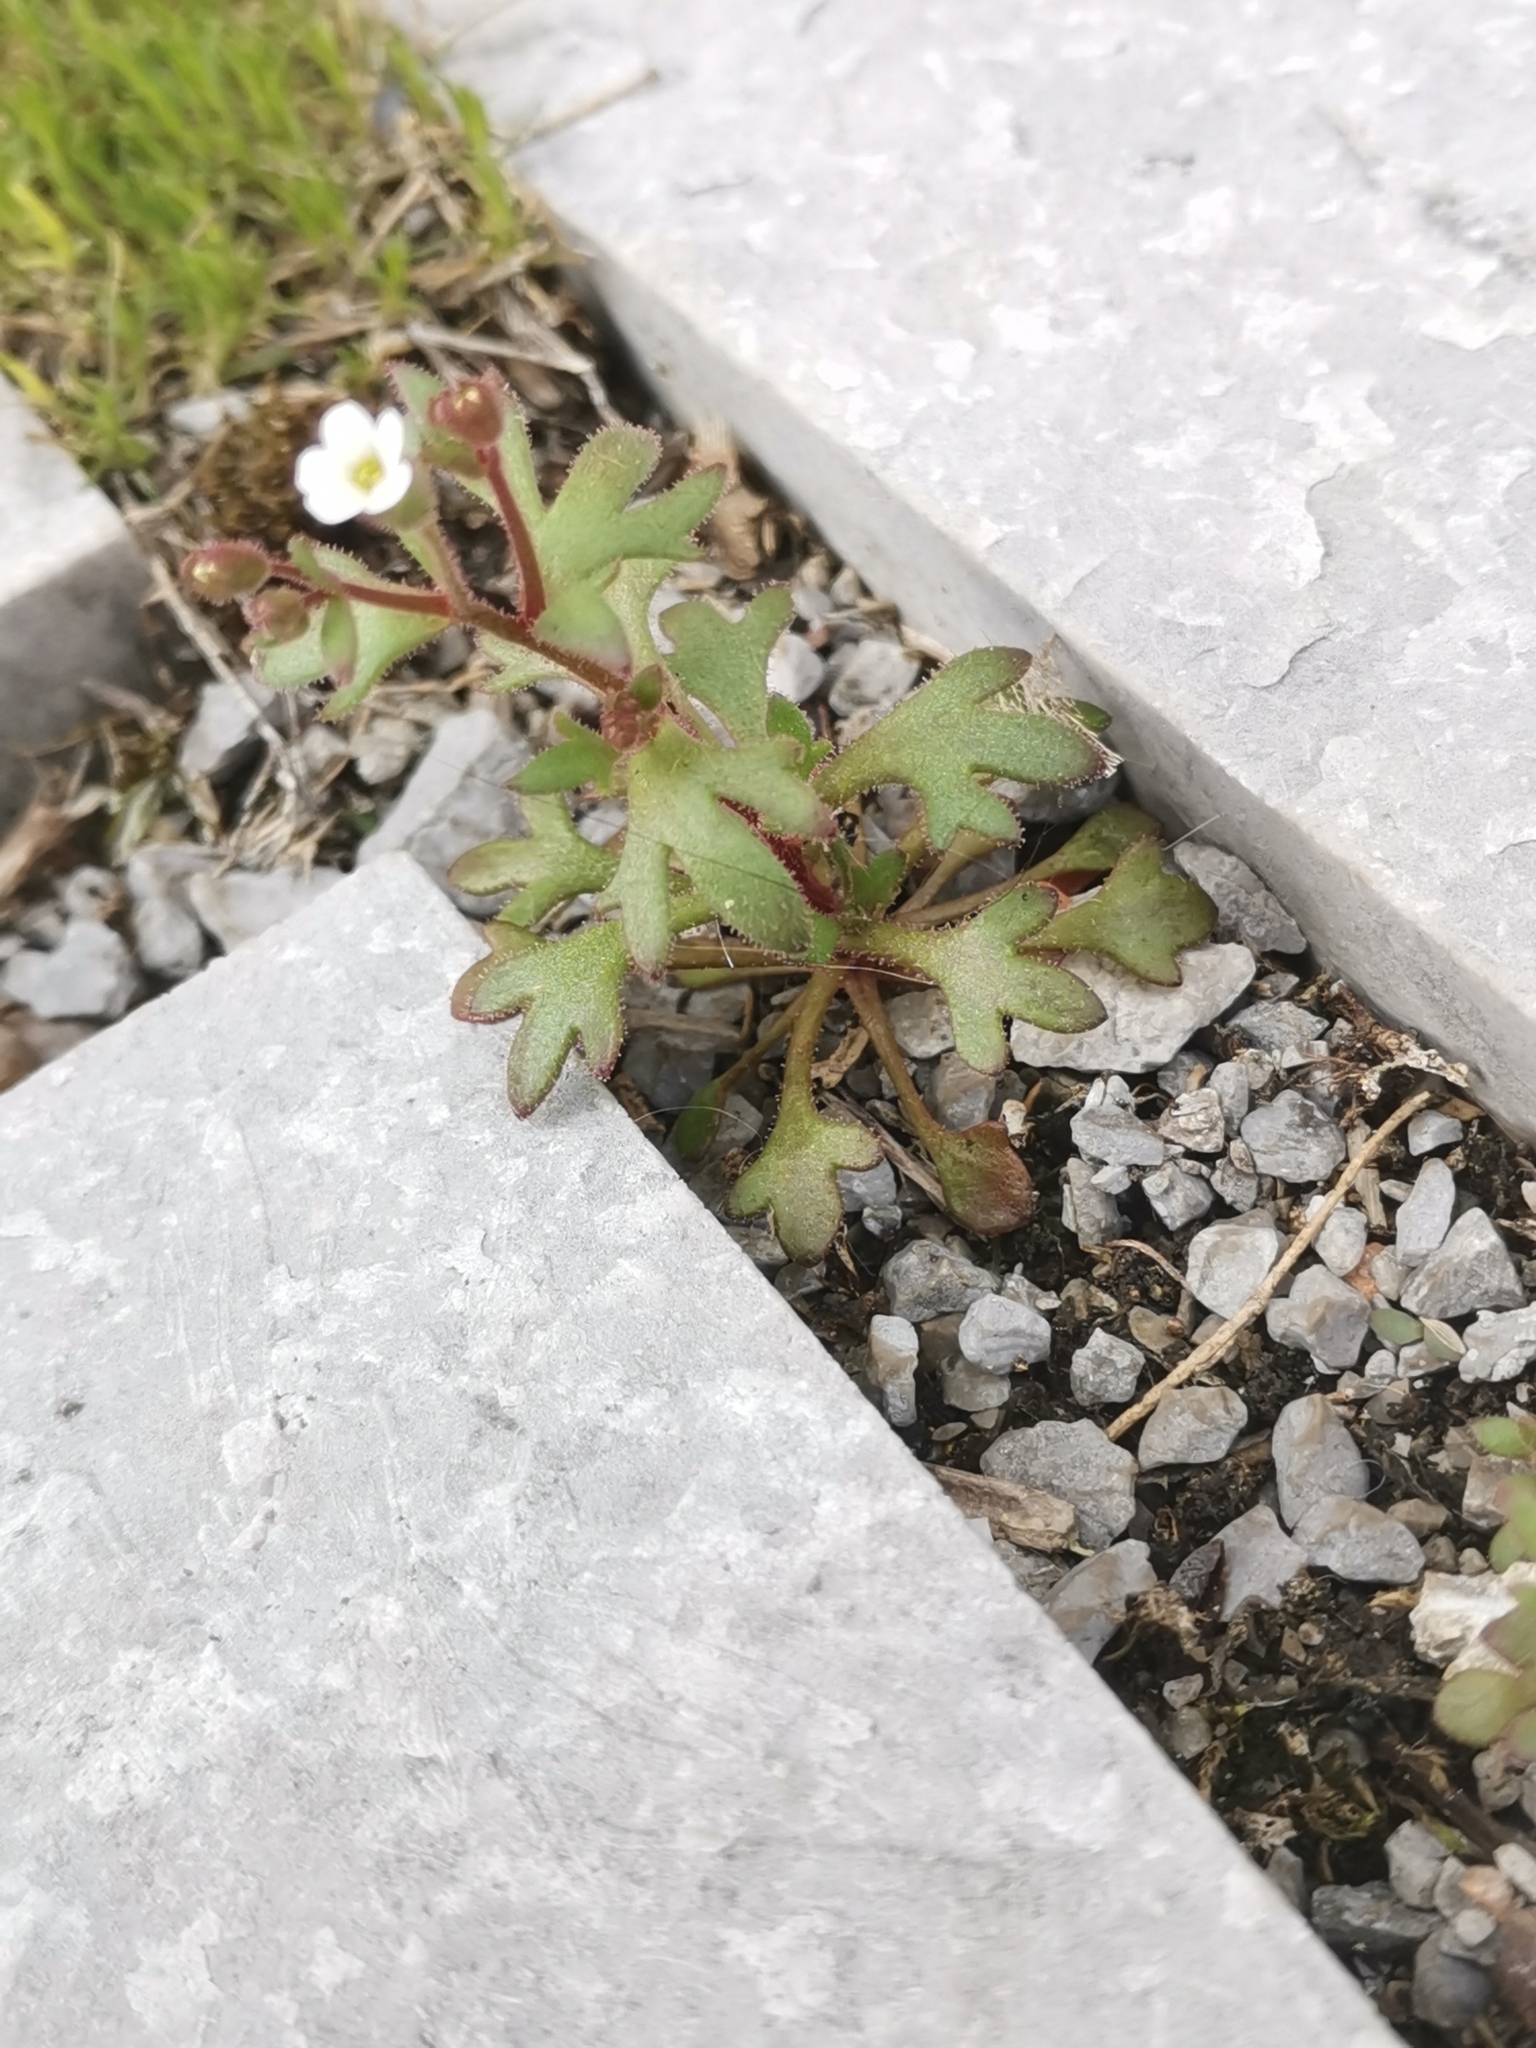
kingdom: Plantae
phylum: Tracheophyta
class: Magnoliopsida
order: Saxifragales
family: Saxifragaceae
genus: Saxifraga
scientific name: Saxifraga tridactylites
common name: Rue-leaved saxifrage
